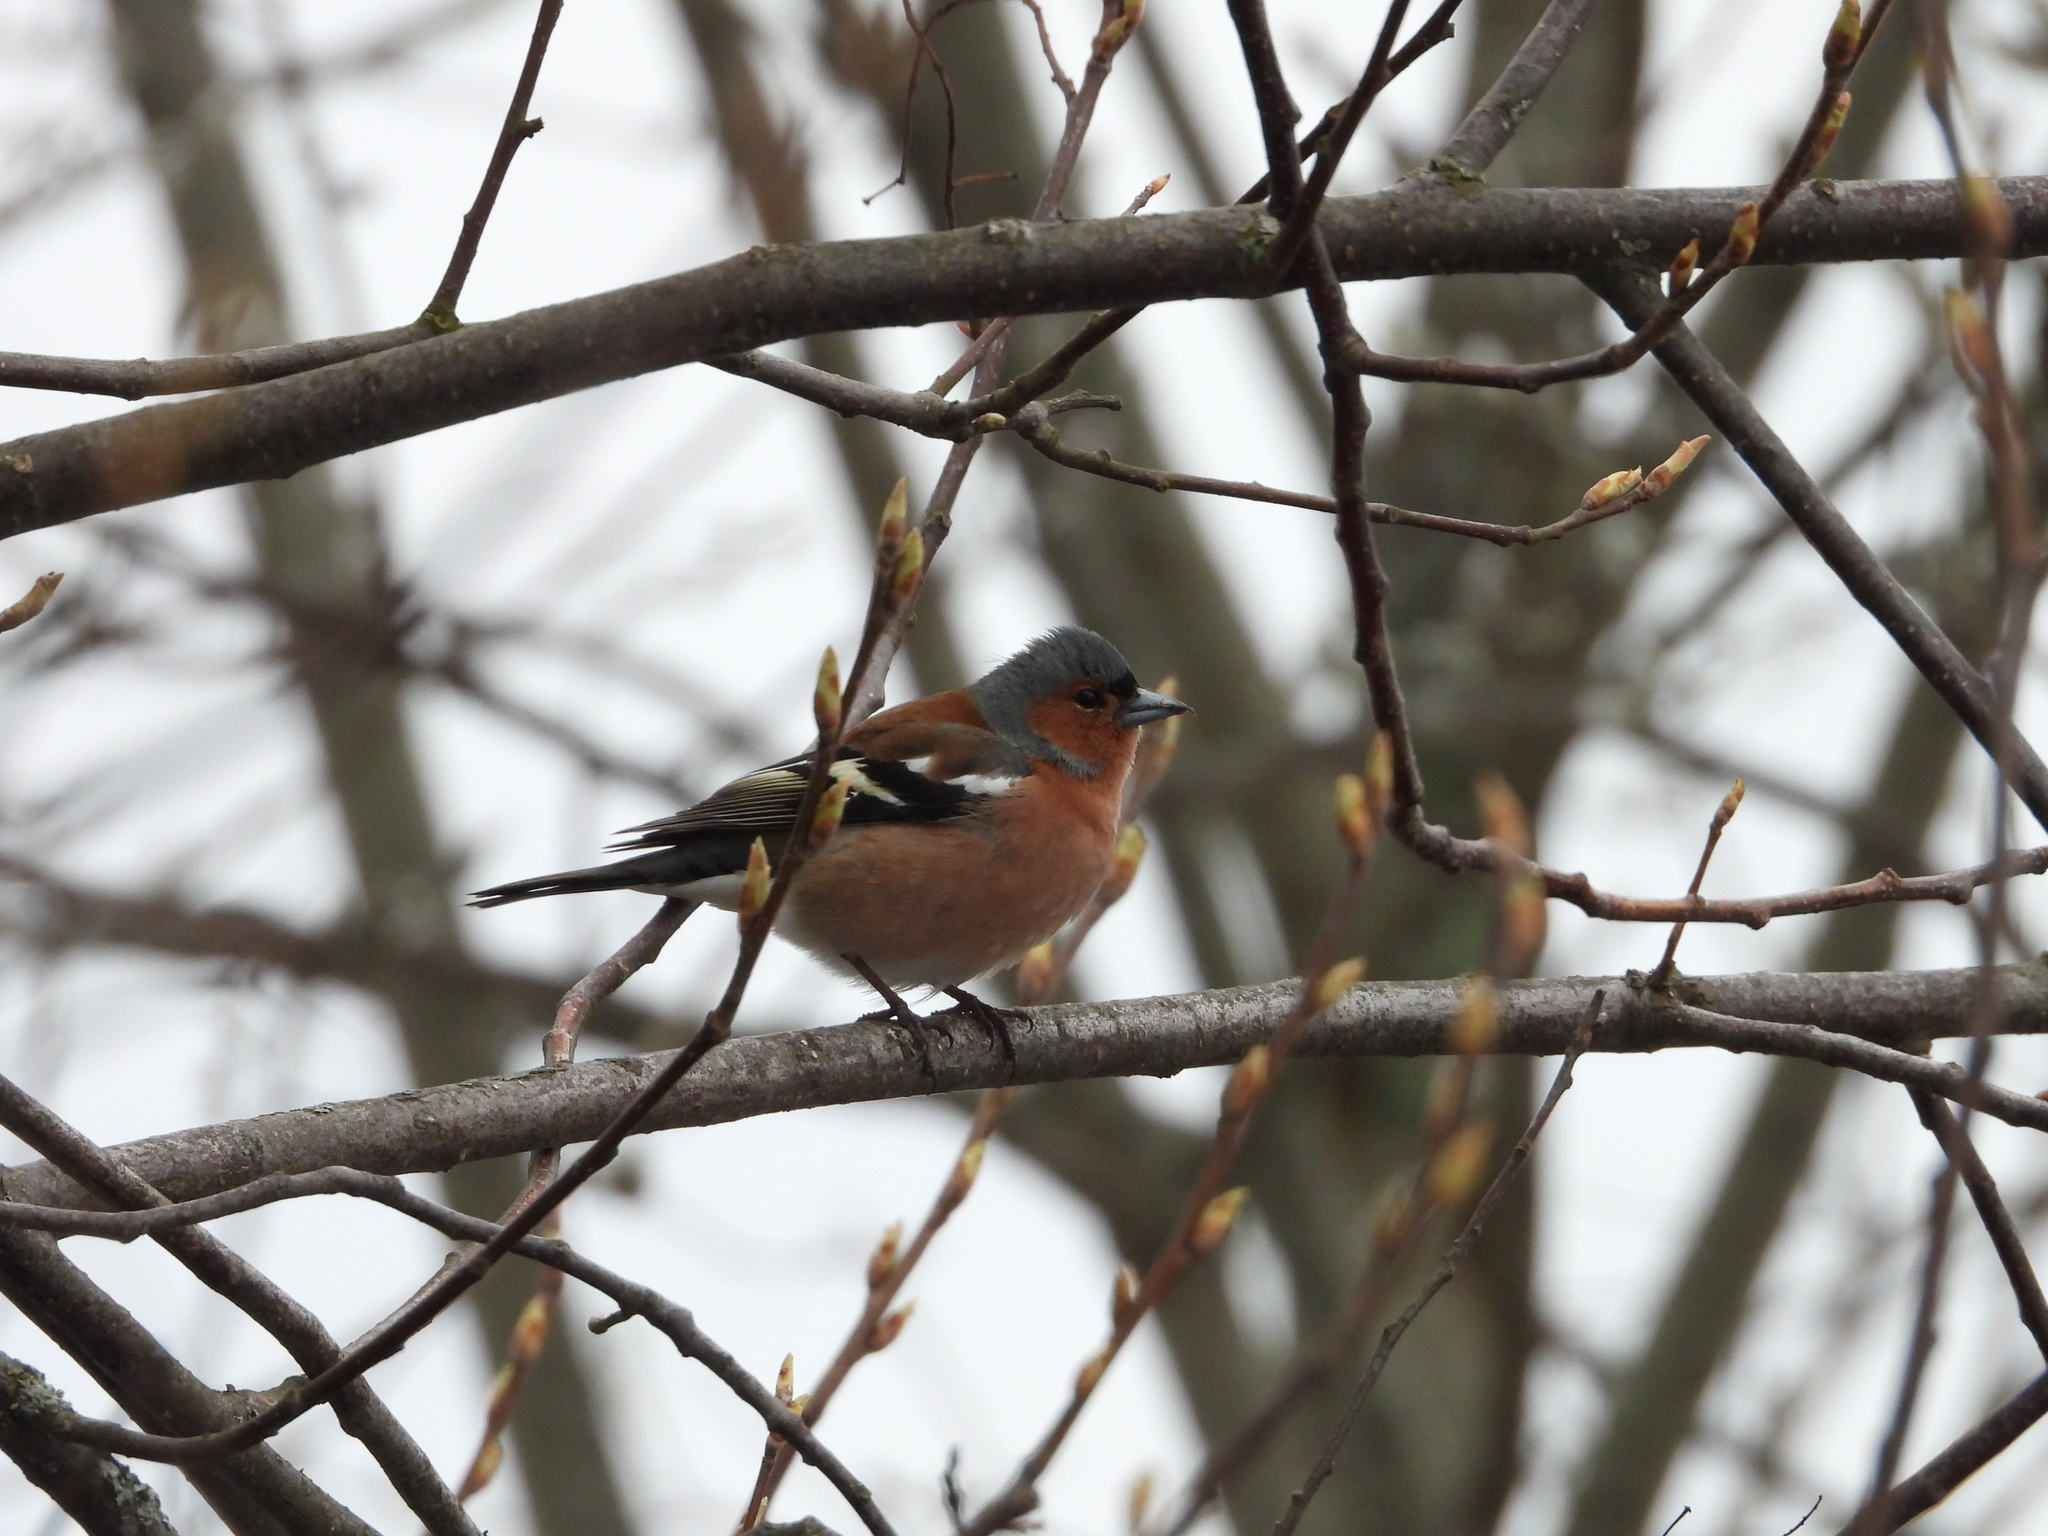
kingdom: Animalia
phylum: Chordata
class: Aves
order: Passeriformes
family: Fringillidae
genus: Fringilla
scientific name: Fringilla coelebs
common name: Common chaffinch
